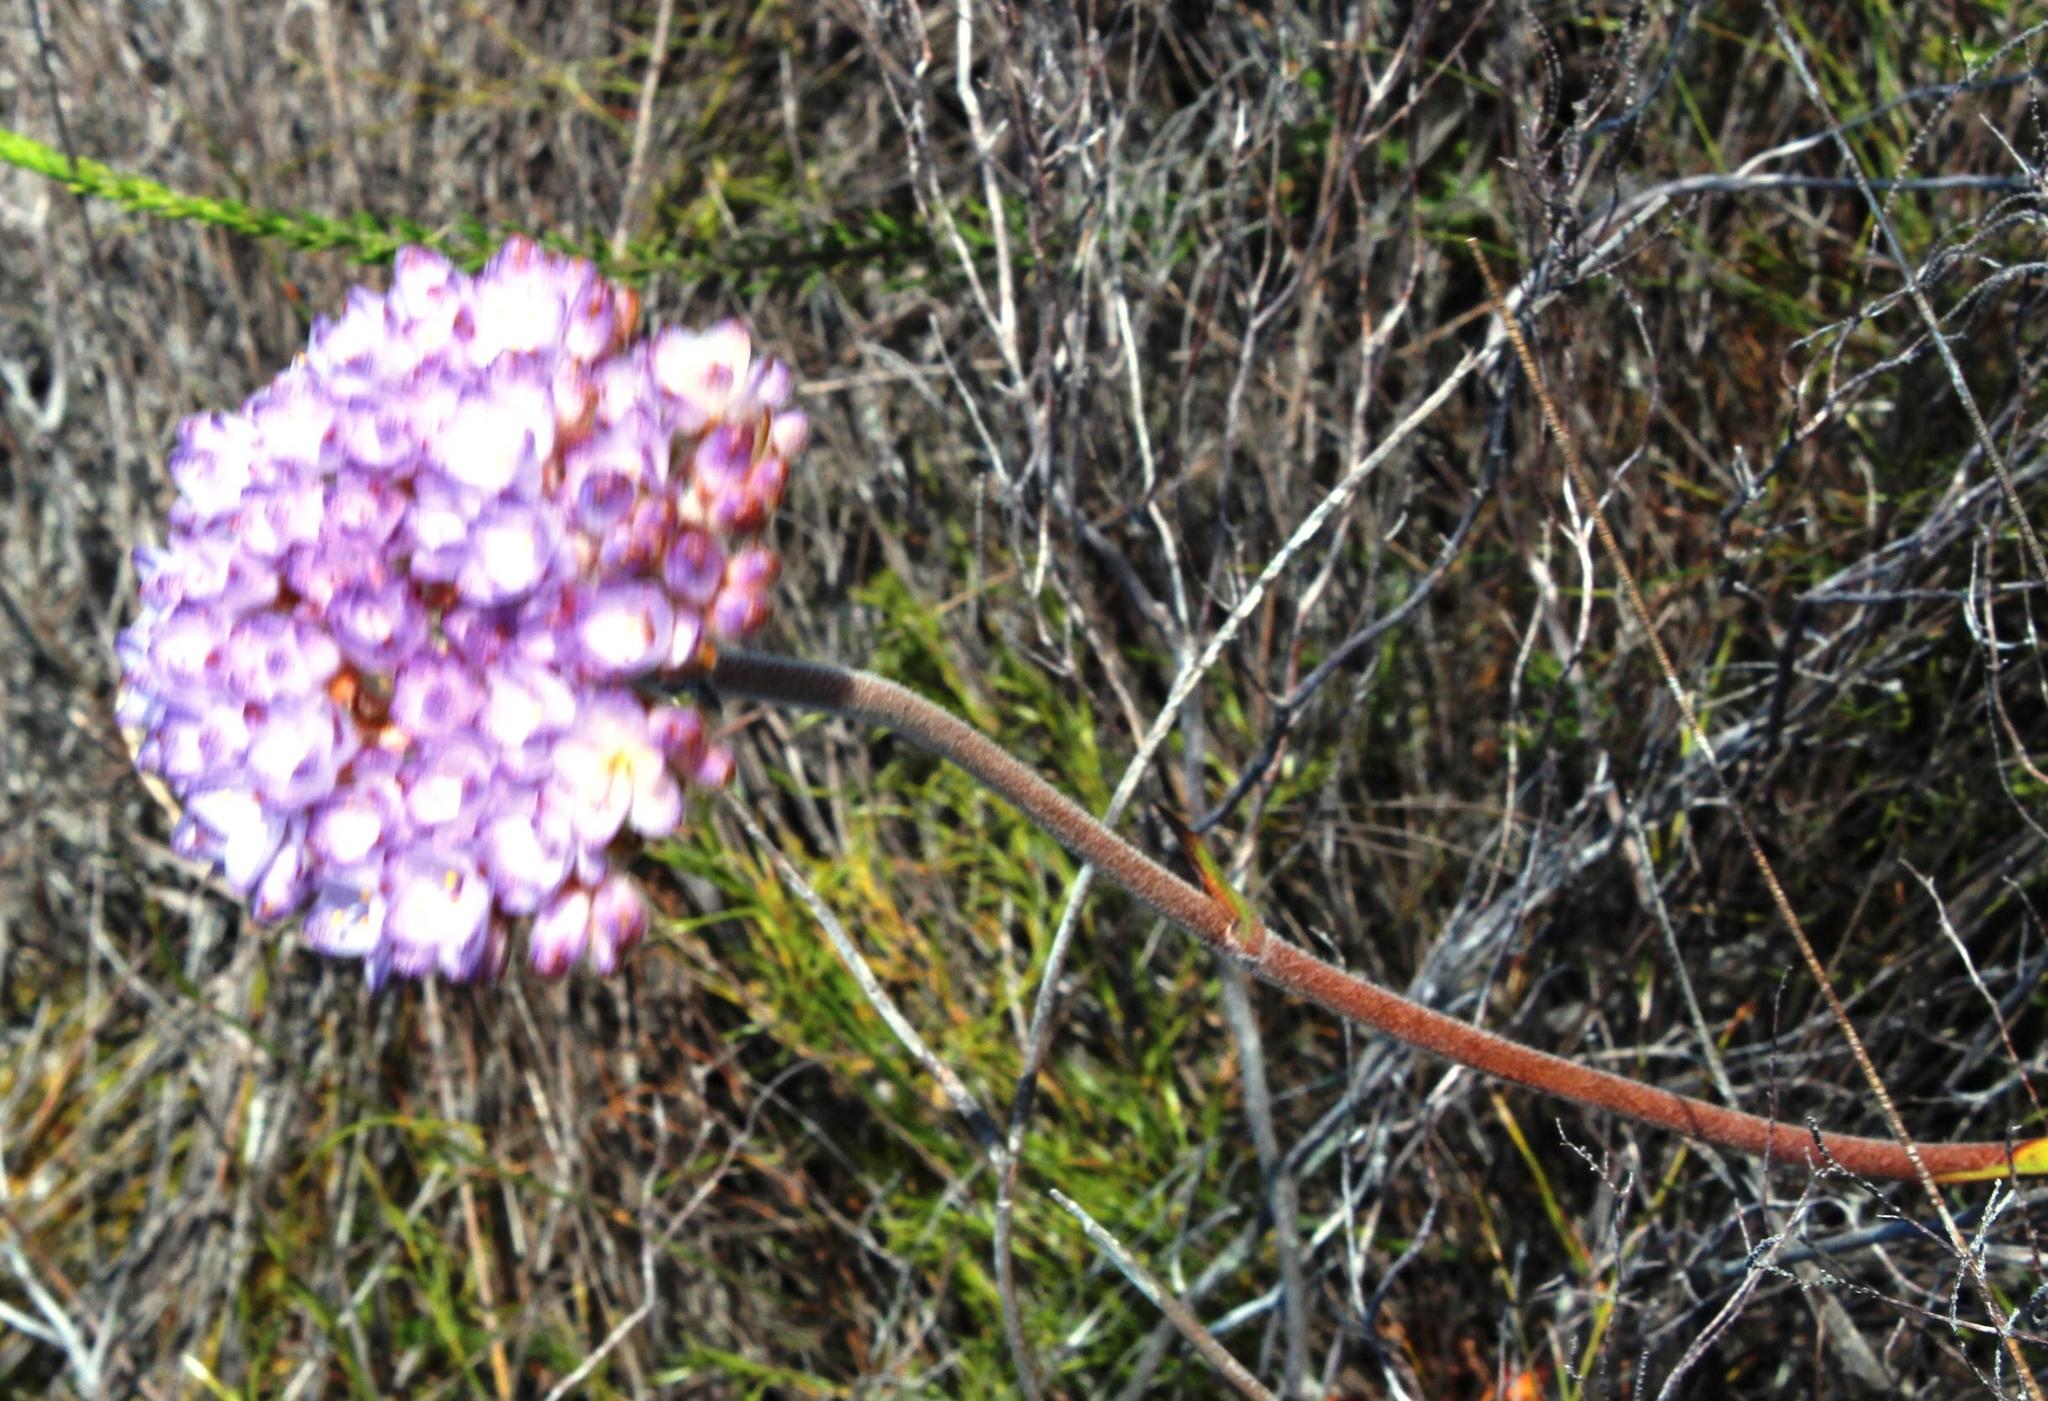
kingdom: Plantae
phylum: Tracheophyta
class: Liliopsida
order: Commelinales
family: Haemodoraceae
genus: Dilatris
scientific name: Dilatris pillansii
